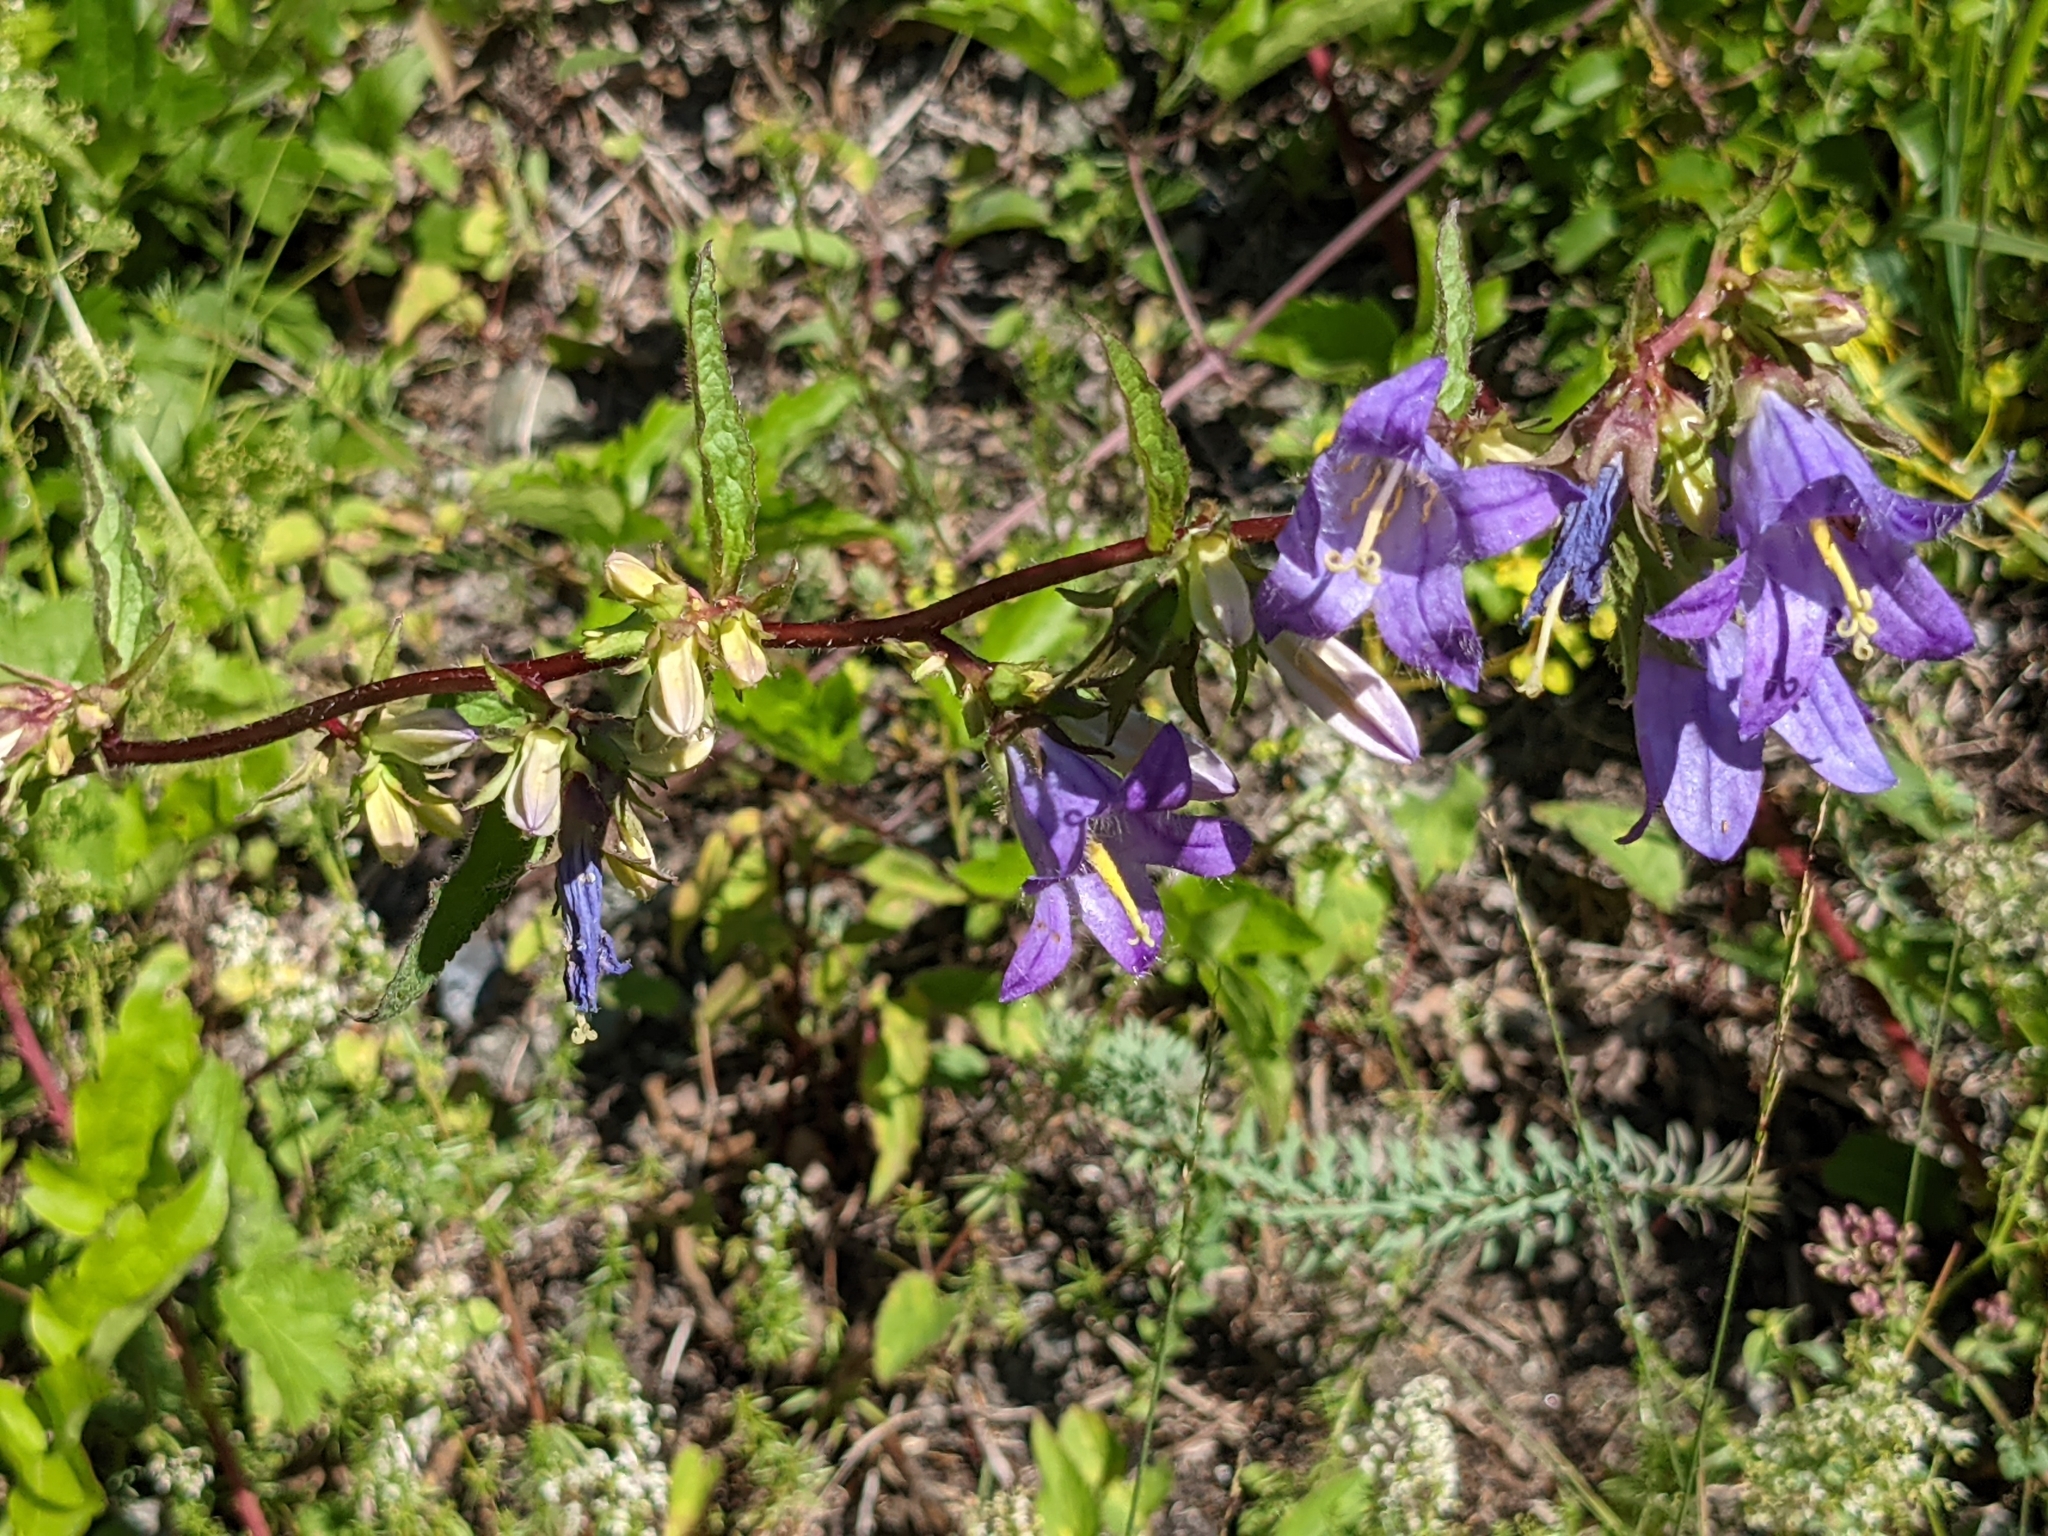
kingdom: Plantae
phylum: Tracheophyta
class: Magnoliopsida
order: Asterales
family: Campanulaceae
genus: Campanula
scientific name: Campanula glomerata
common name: Clustered bellflower
